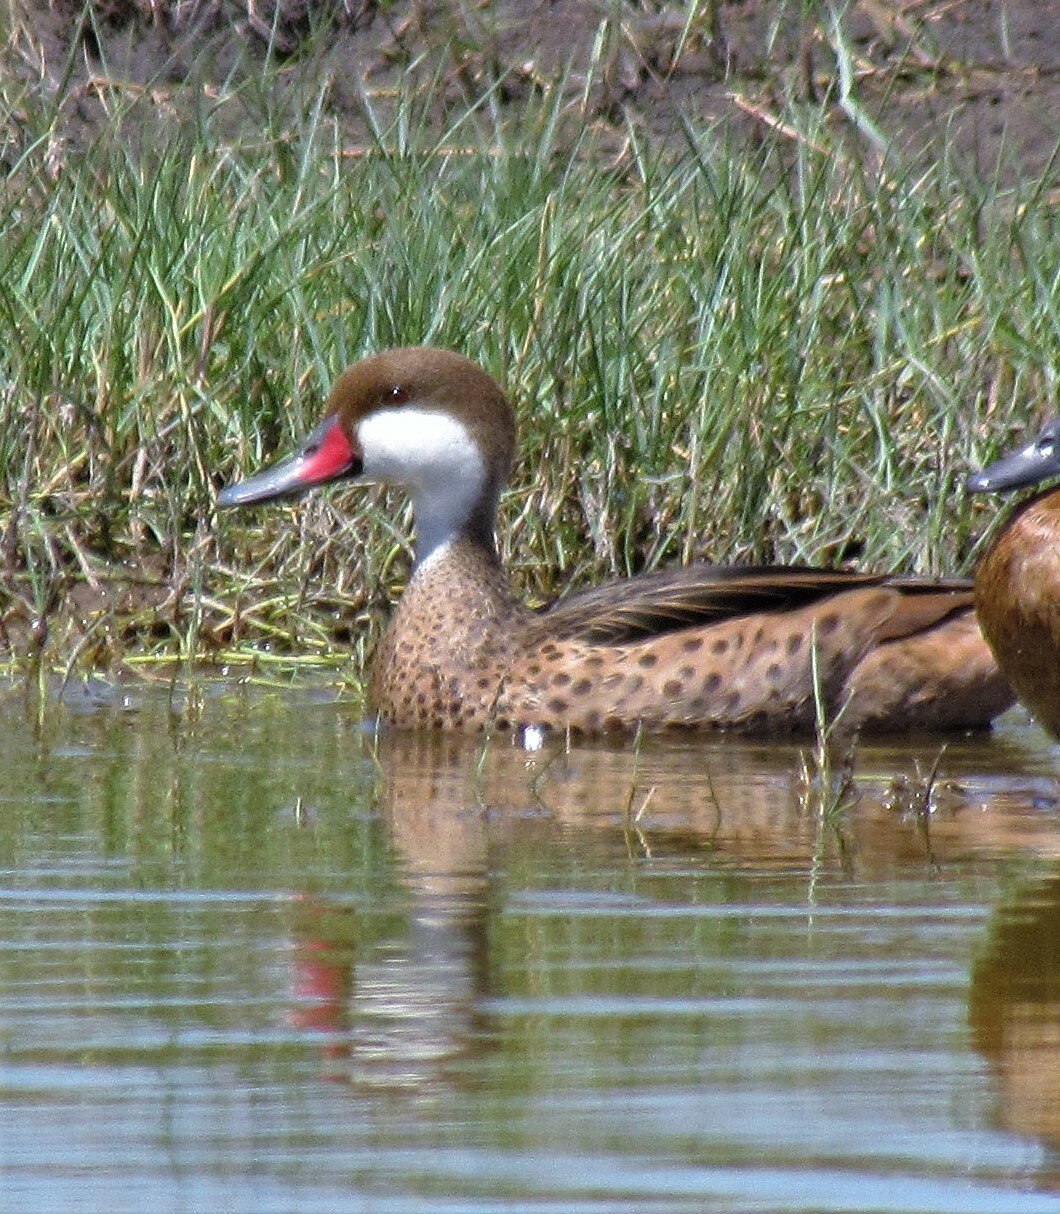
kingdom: Animalia
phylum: Chordata
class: Aves
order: Anseriformes
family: Anatidae
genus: Anas
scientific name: Anas bahamensis
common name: White-cheeked pintail
